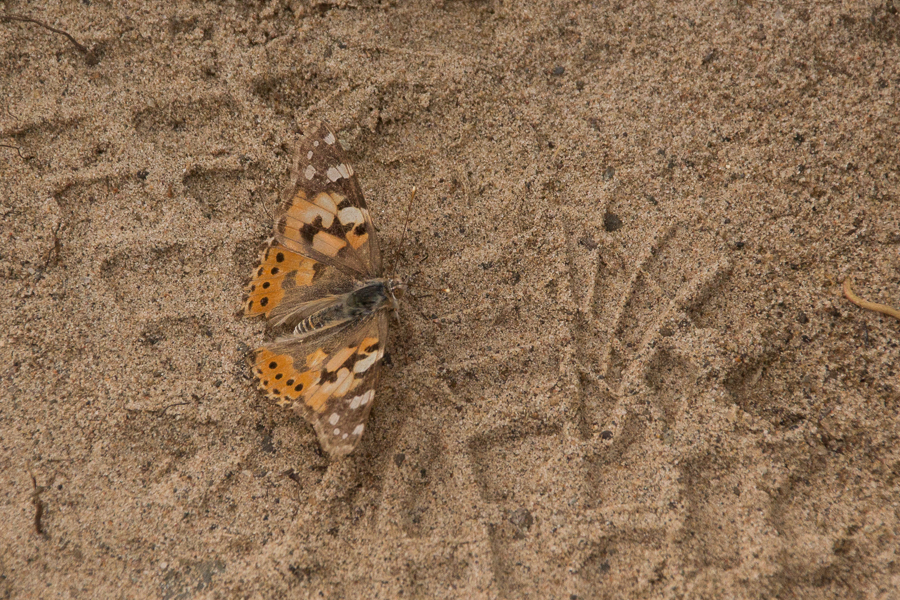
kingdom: Animalia
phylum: Arthropoda
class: Insecta
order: Lepidoptera
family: Nymphalidae
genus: Vanessa
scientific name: Vanessa cardui
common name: Painted lady
